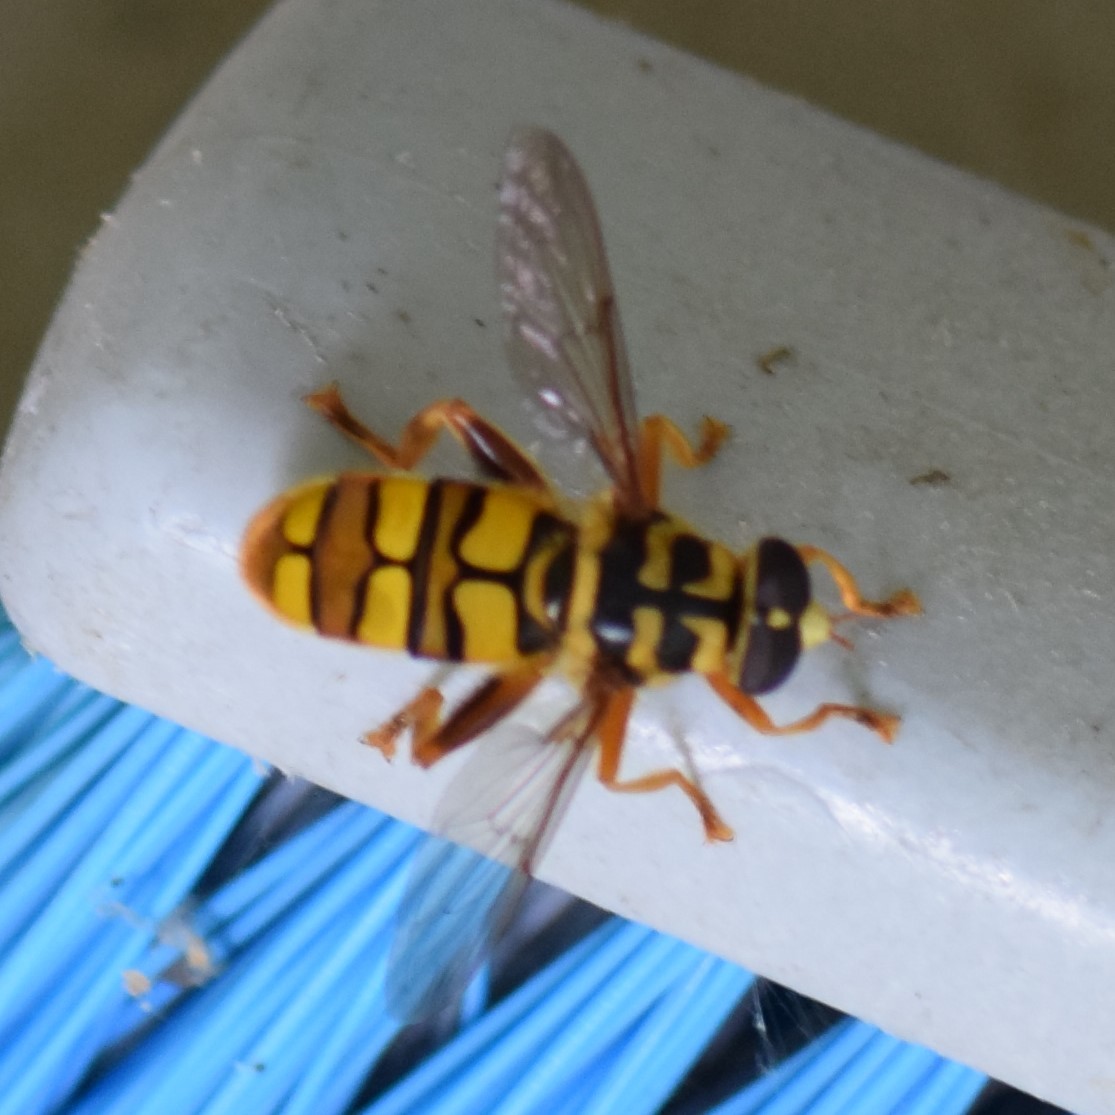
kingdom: Animalia
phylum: Arthropoda
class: Insecta
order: Diptera
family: Syrphidae
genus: Milesia
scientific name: Milesia virginiensis
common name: Virginia giant
